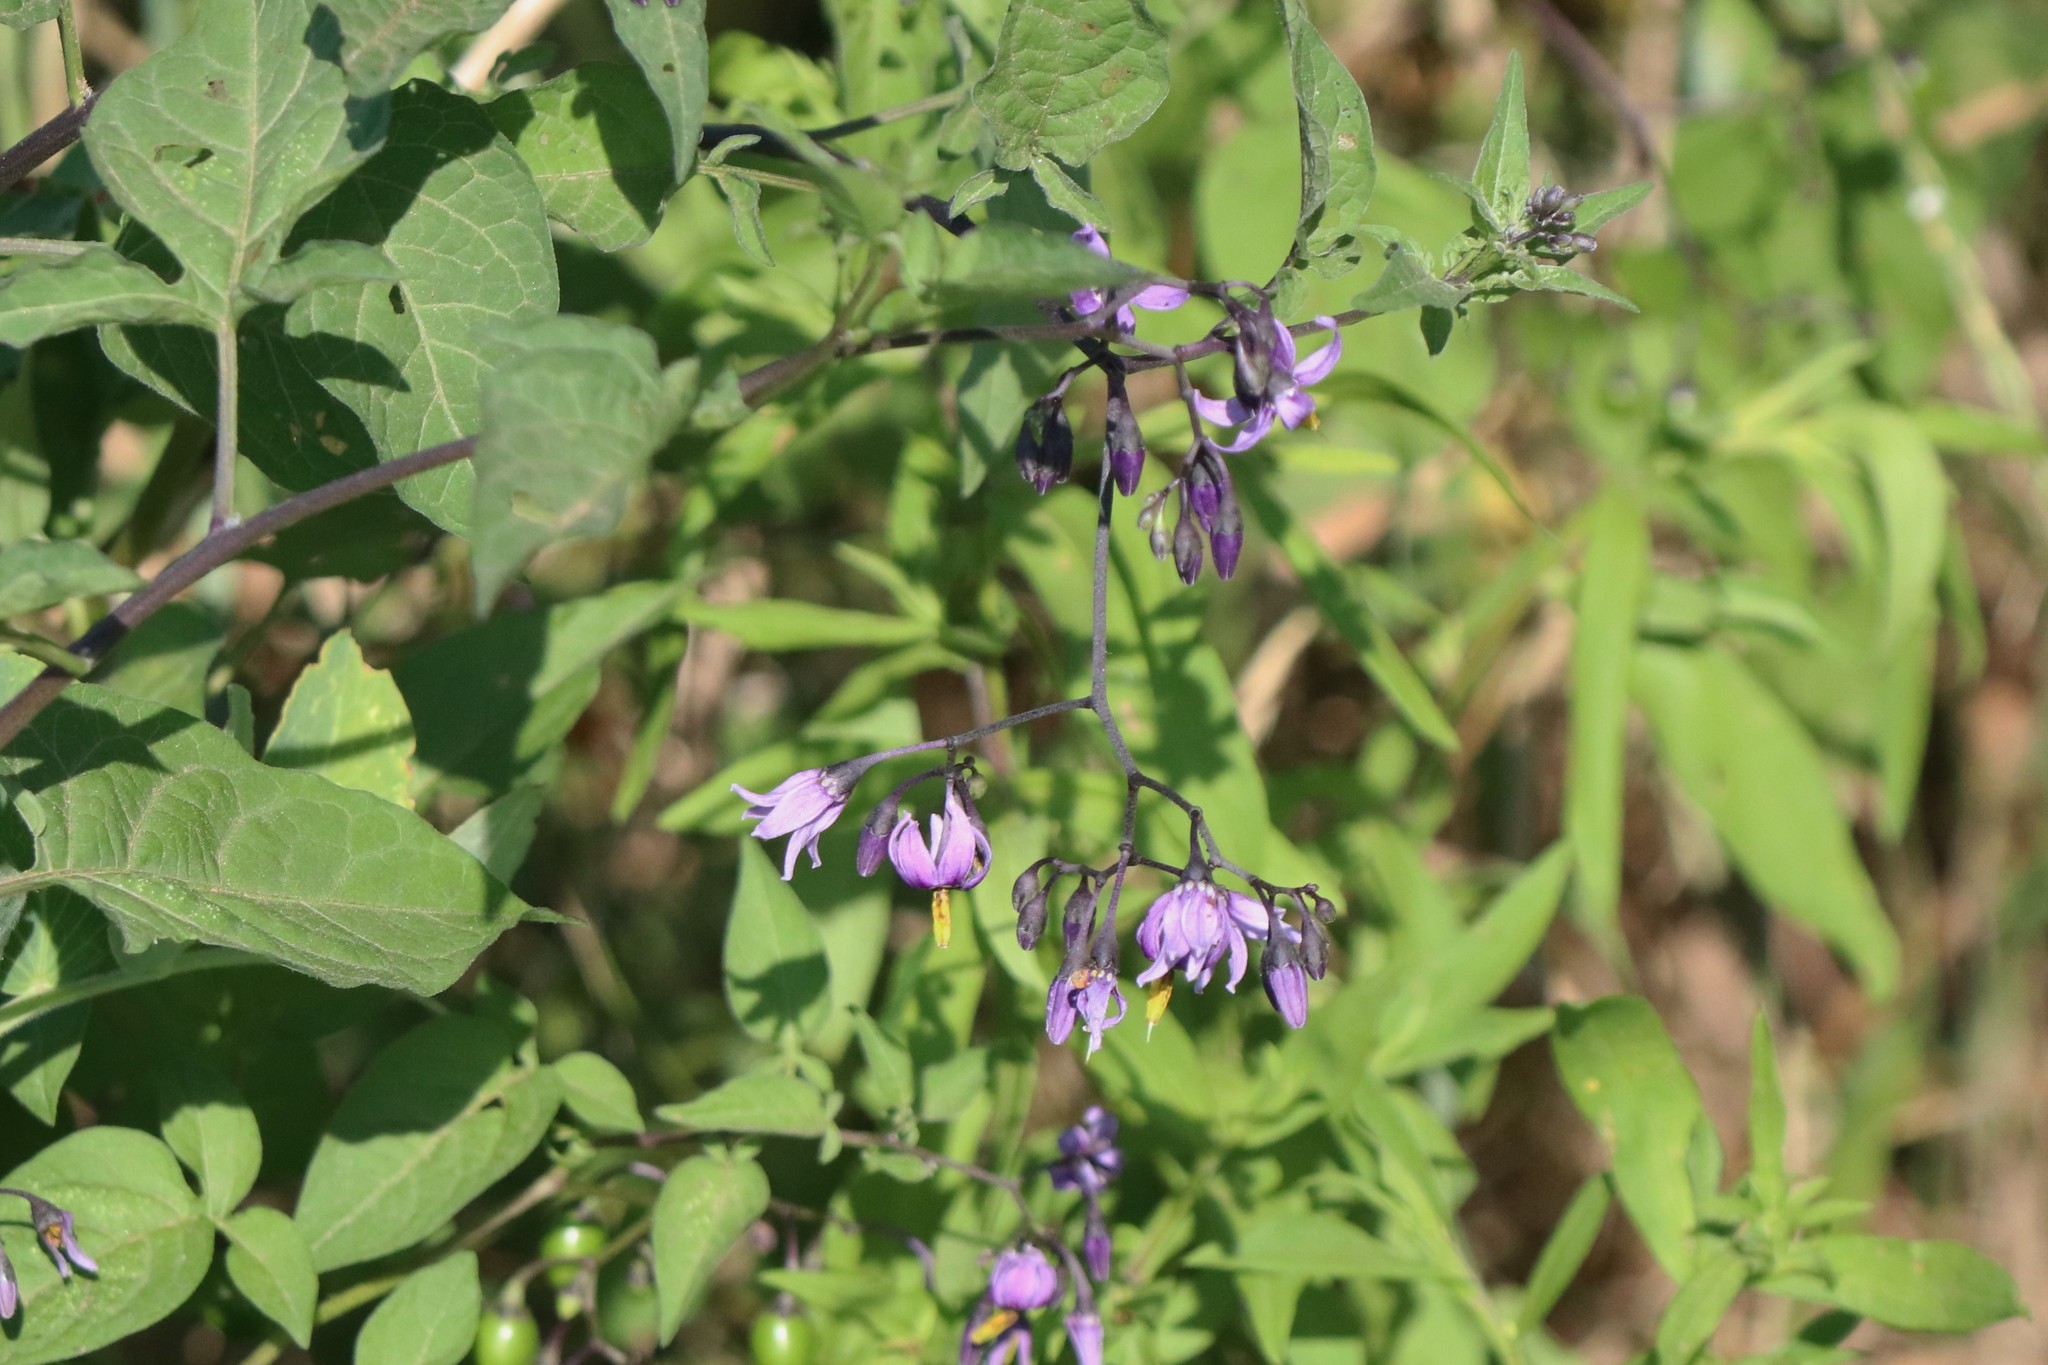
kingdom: Plantae
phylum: Tracheophyta
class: Magnoliopsida
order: Solanales
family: Solanaceae
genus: Solanum
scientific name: Solanum dulcamara
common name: Climbing nightshade
